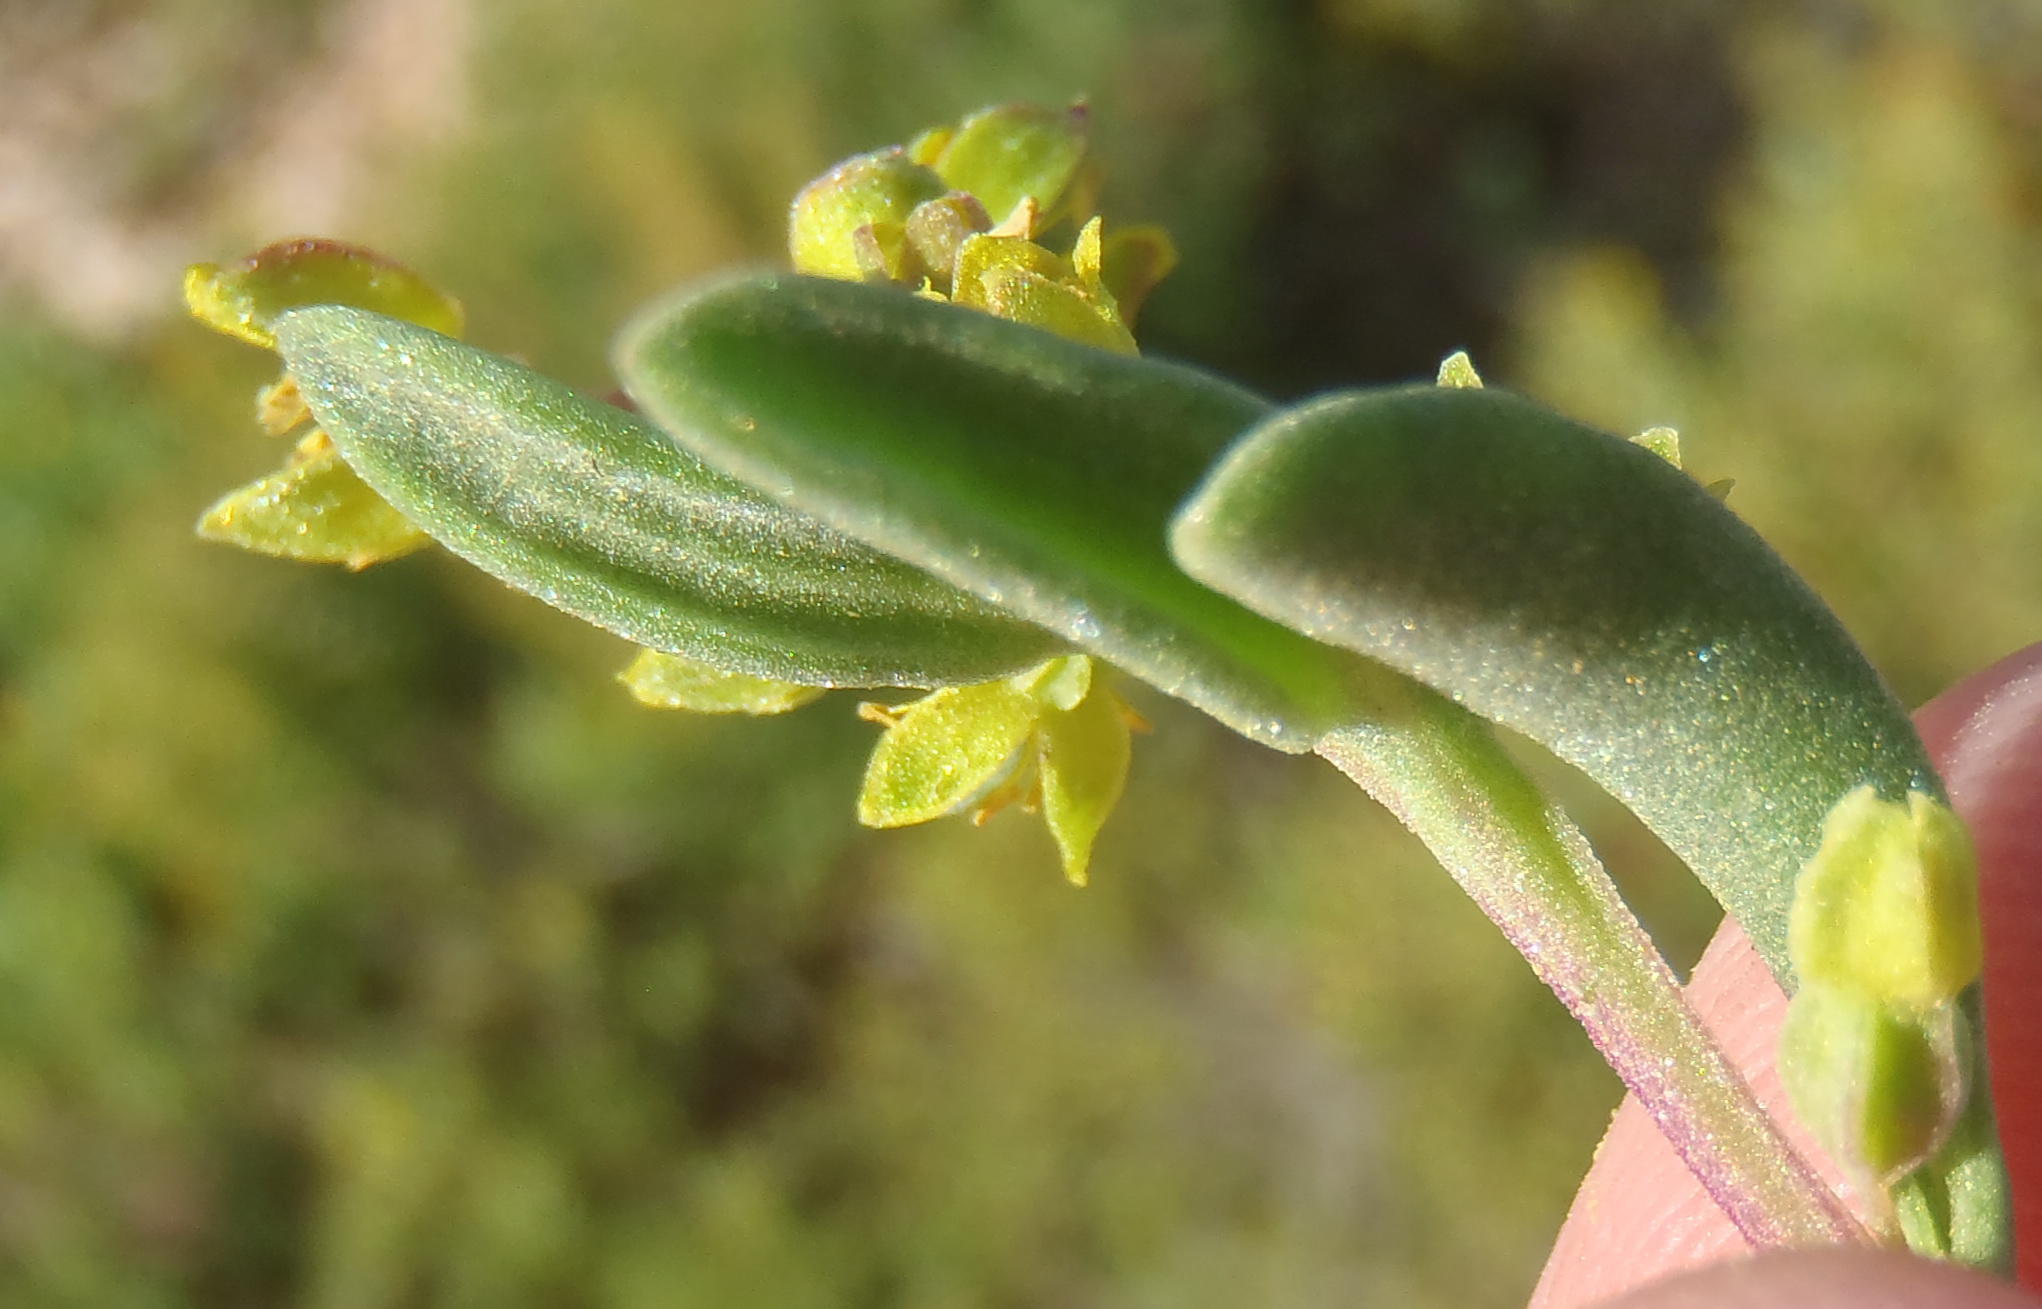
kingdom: Plantae
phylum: Tracheophyta
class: Magnoliopsida
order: Caryophyllales
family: Aizoaceae
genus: Tetragonia
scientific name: Tetragonia fruticosa
